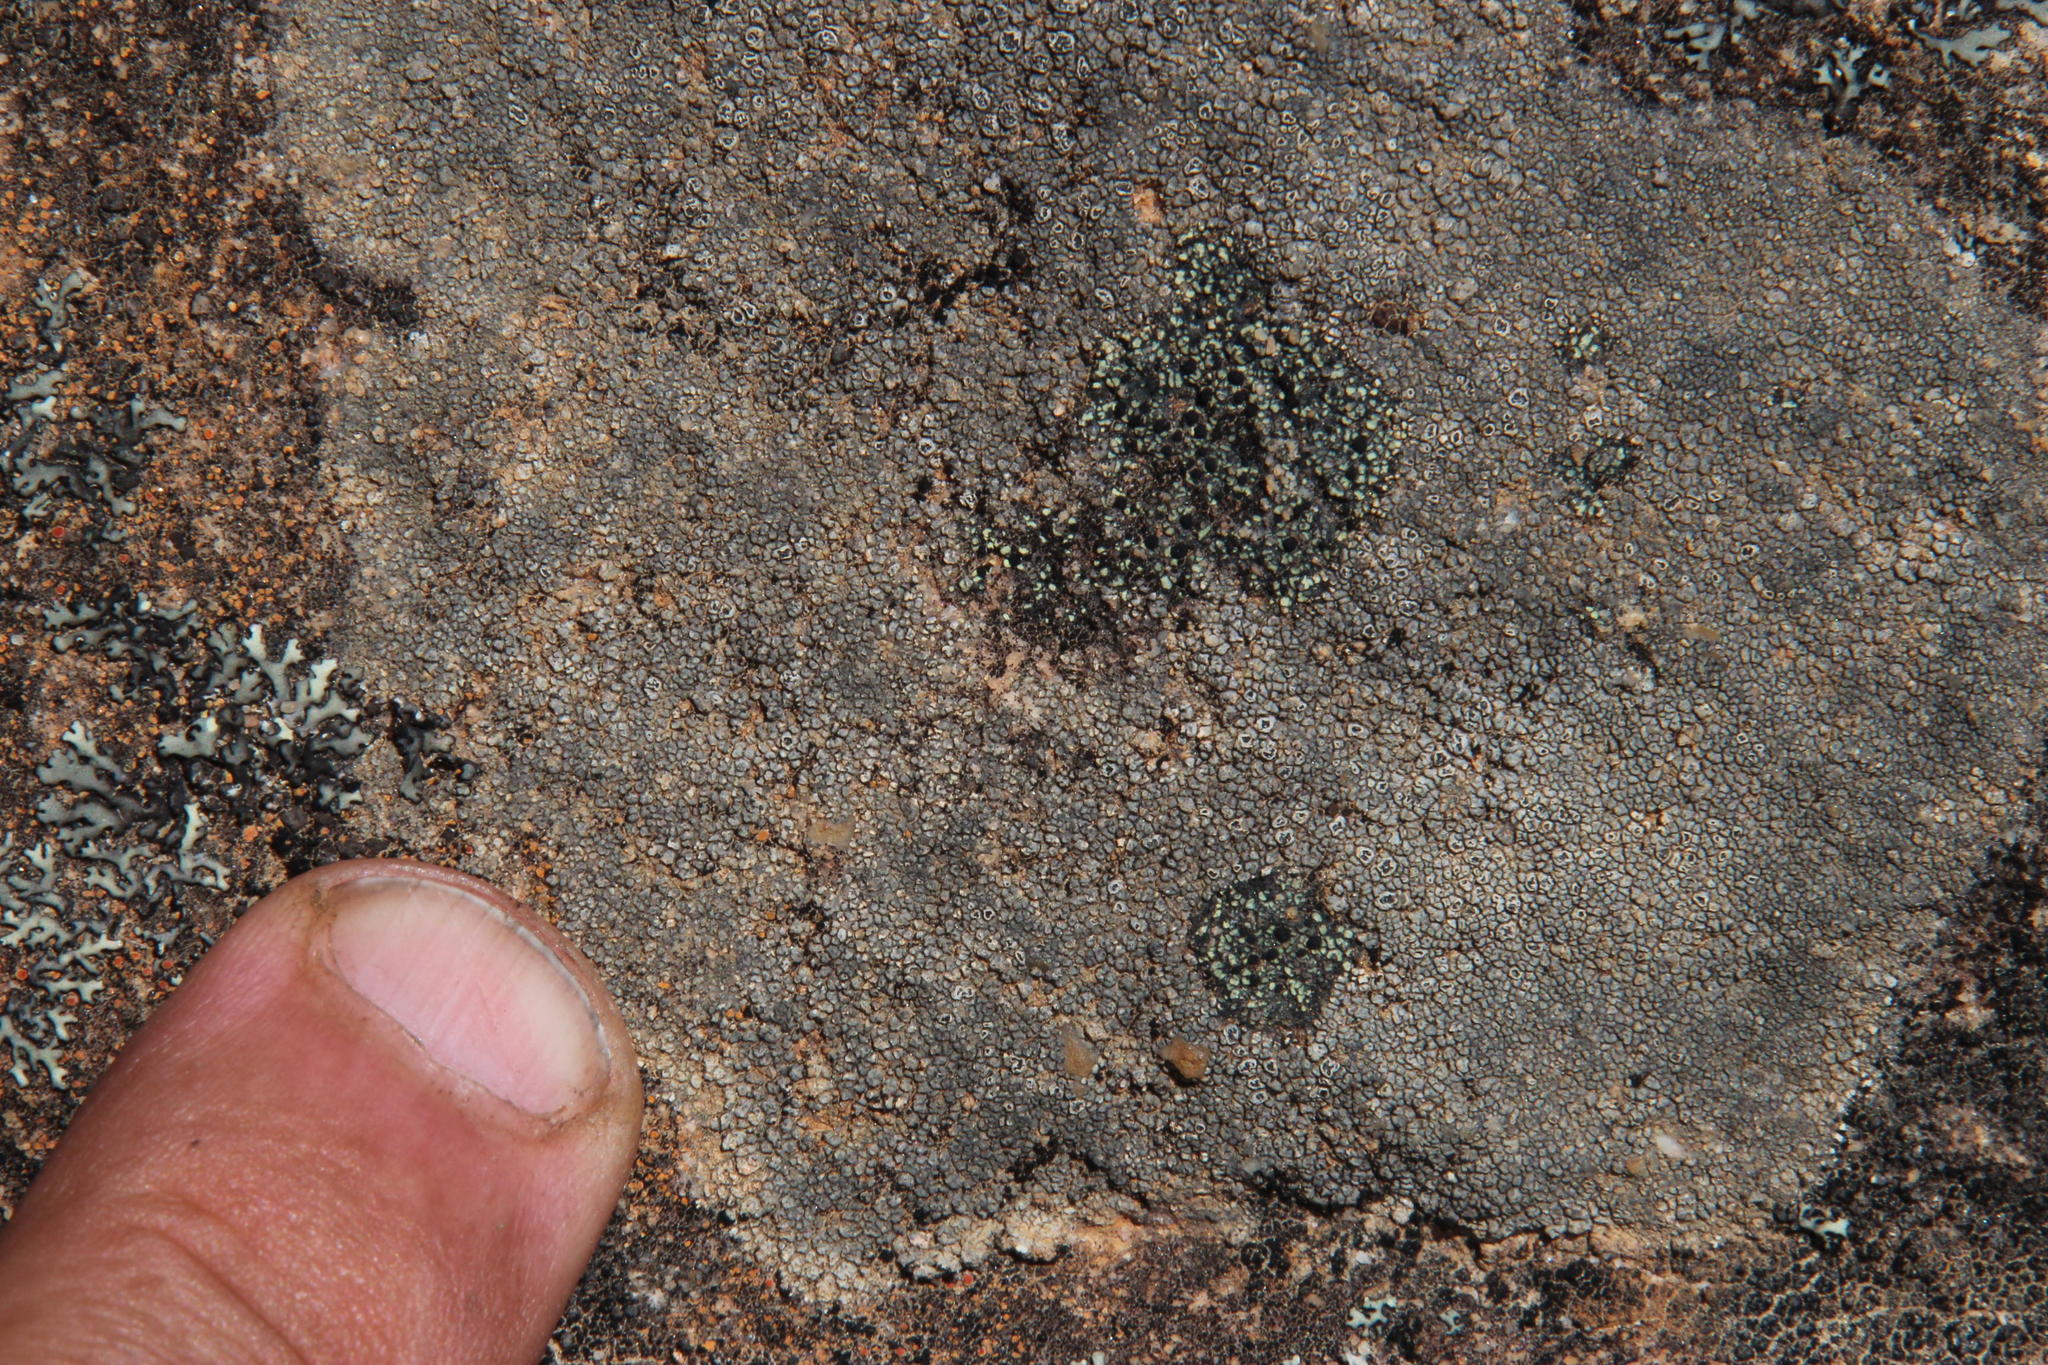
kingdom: Fungi
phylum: Ascomycota
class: Lecanoromycetes
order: Rhizocarpales
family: Rhizocarpaceae
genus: Rhizocarpon
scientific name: Rhizocarpon viridiatrum
